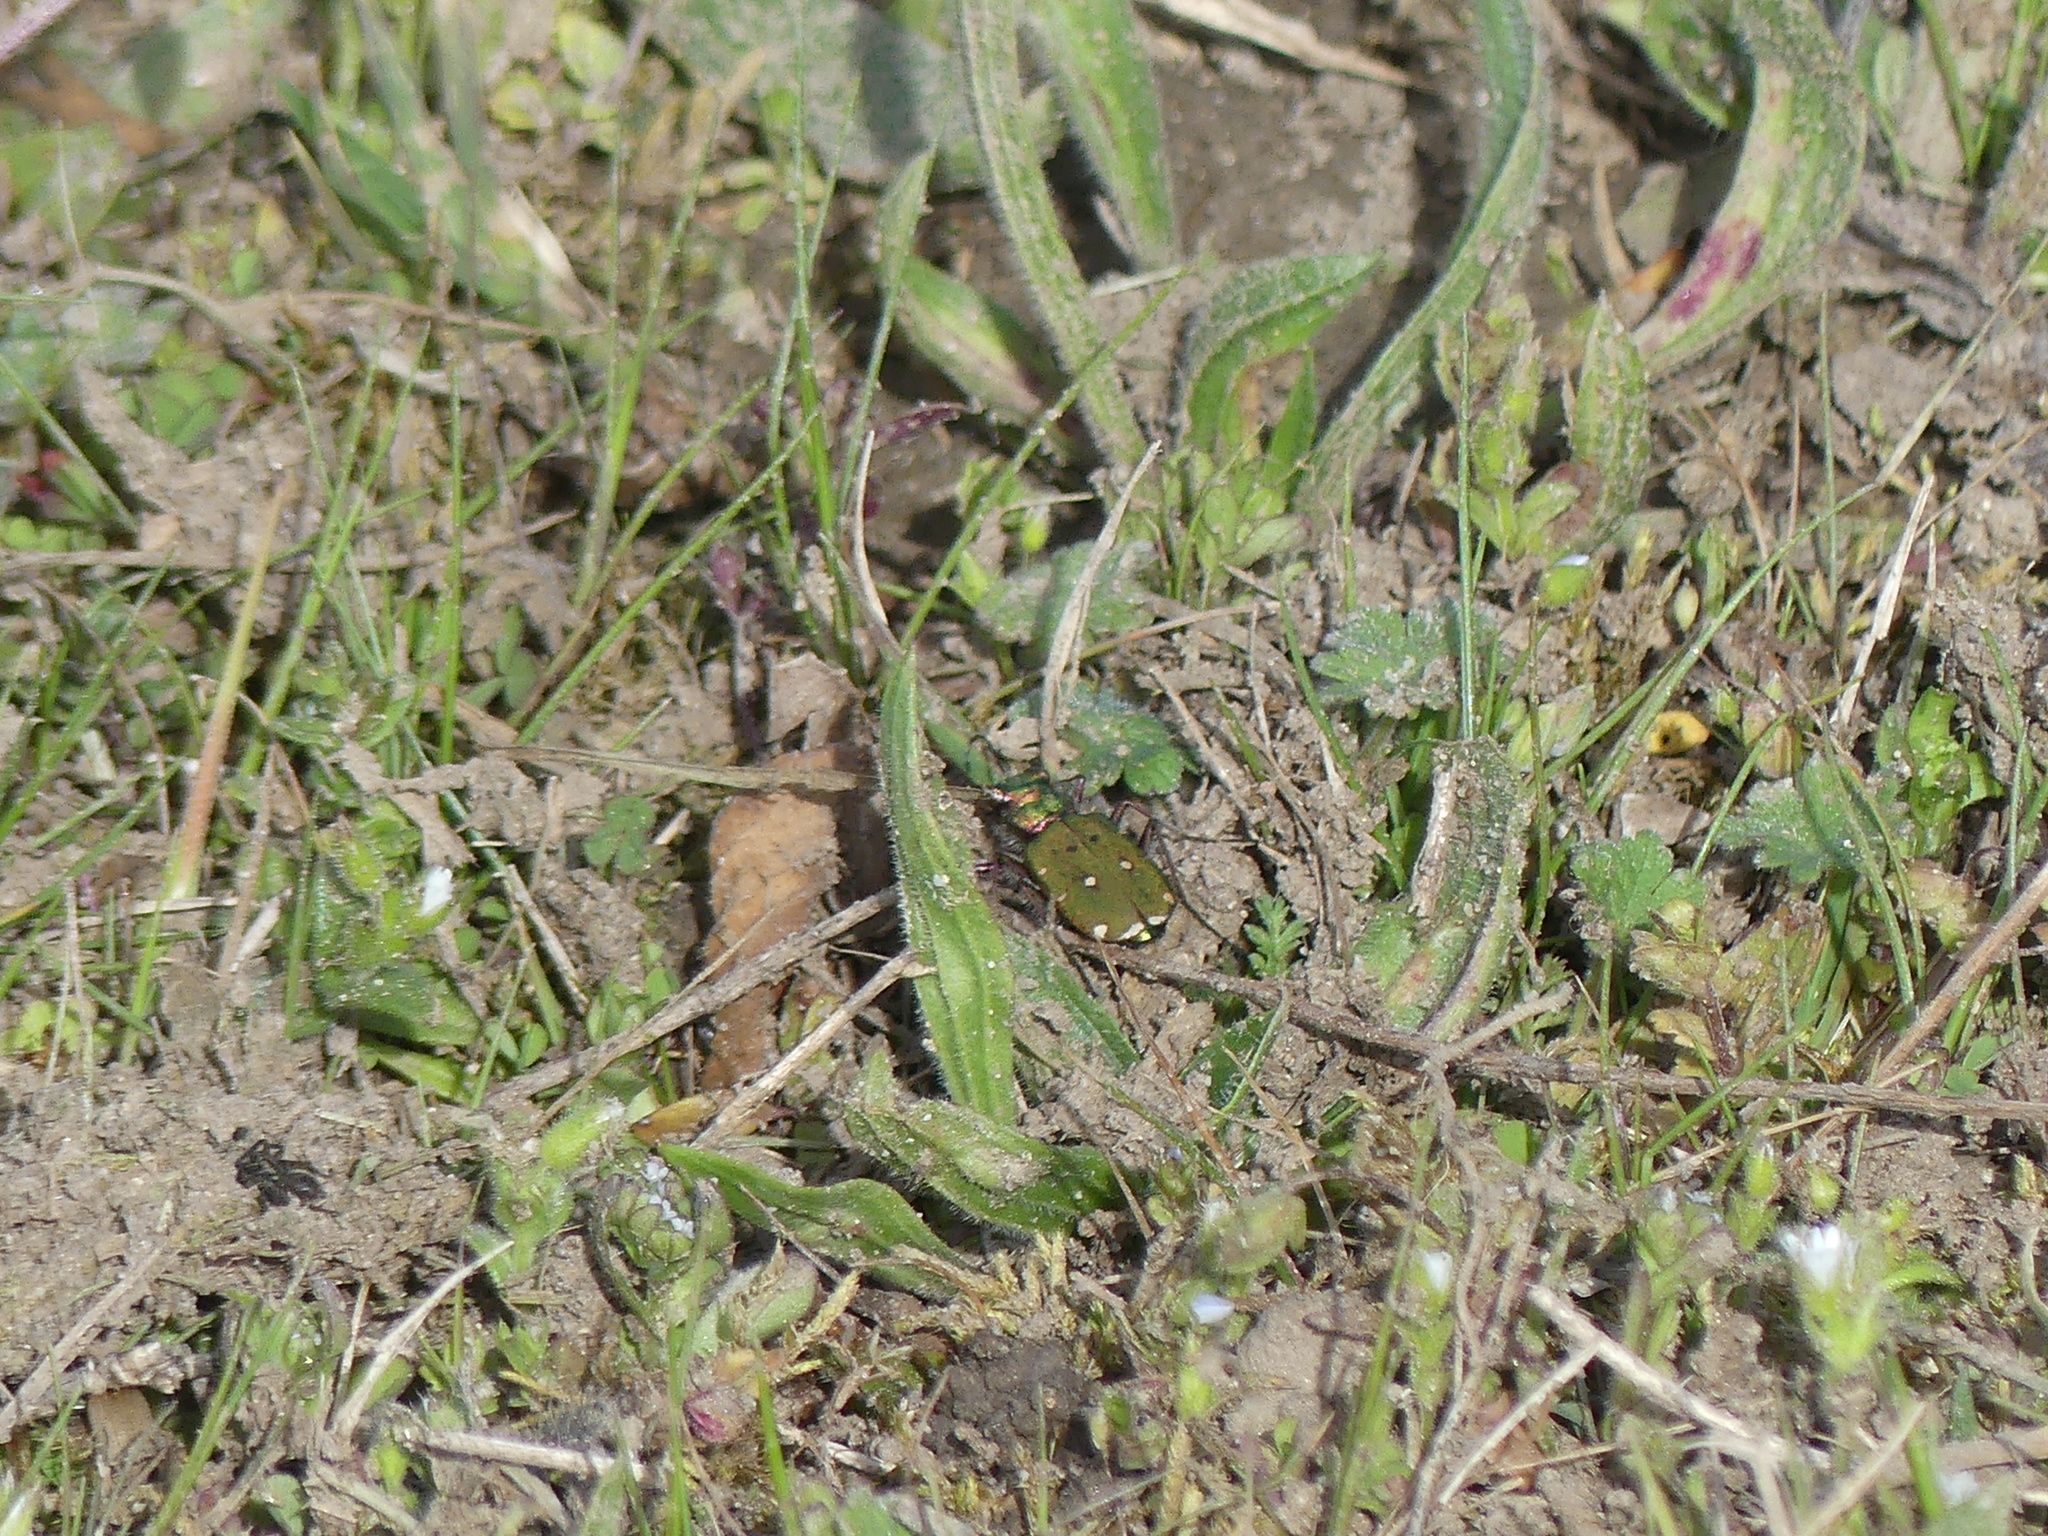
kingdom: Animalia
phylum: Arthropoda
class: Insecta
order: Coleoptera
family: Carabidae
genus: Cicindela
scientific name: Cicindela campestris
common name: Common tiger beetle
